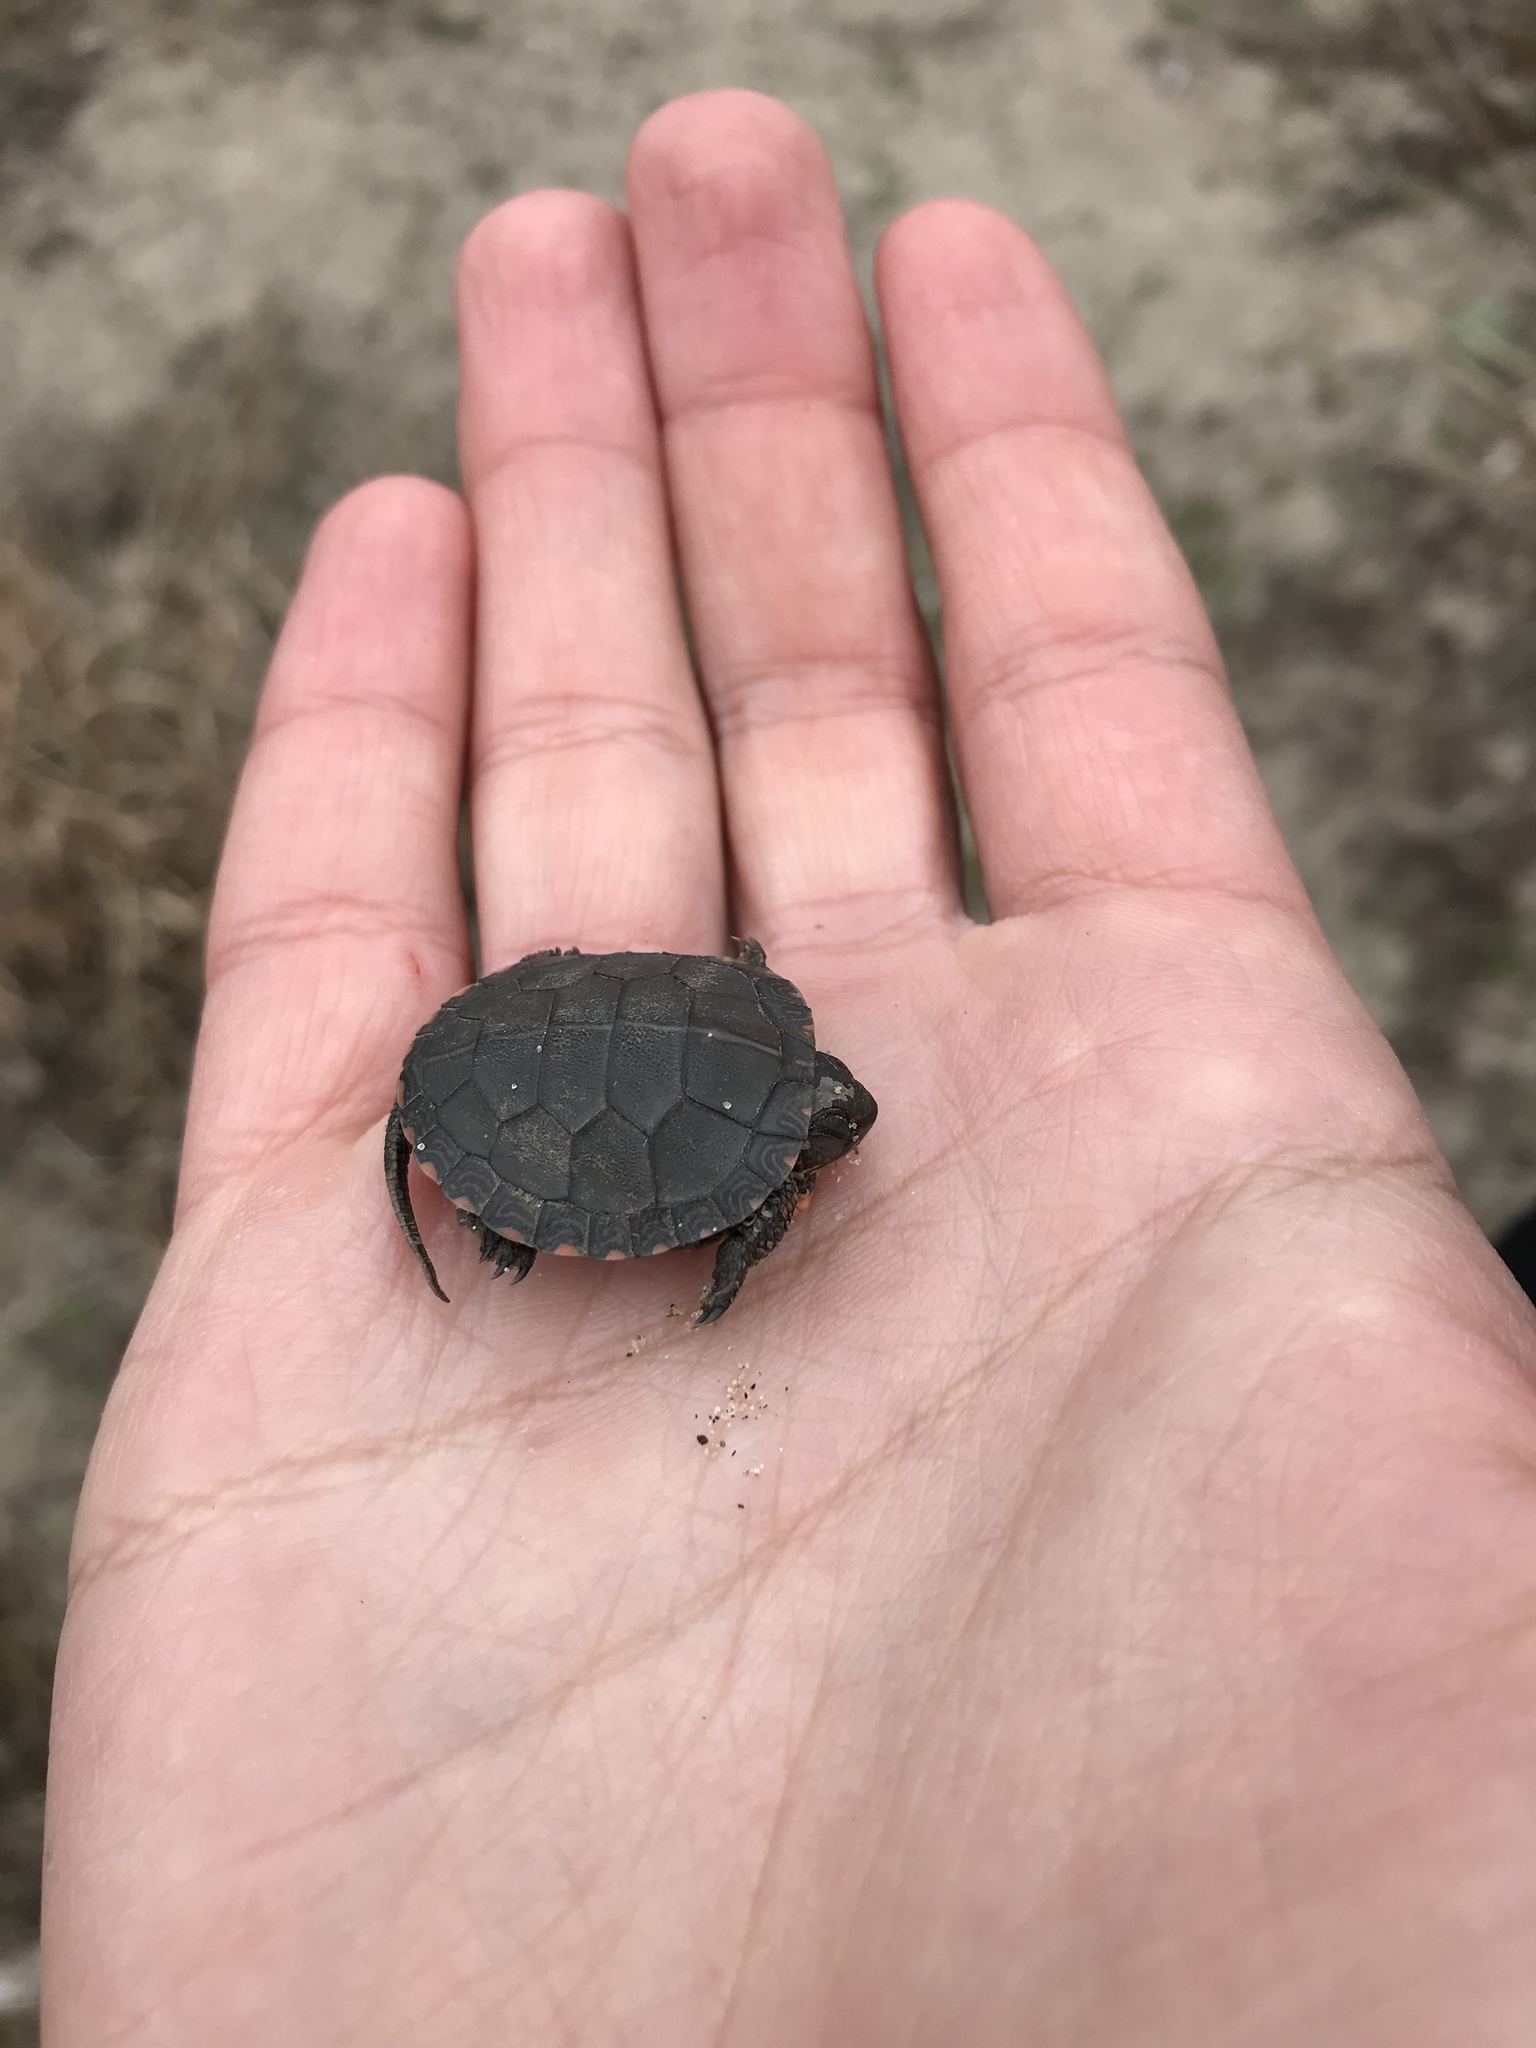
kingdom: Animalia
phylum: Chordata
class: Testudines
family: Emydidae
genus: Chrysemys
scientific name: Chrysemys picta
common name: Painted turtle
